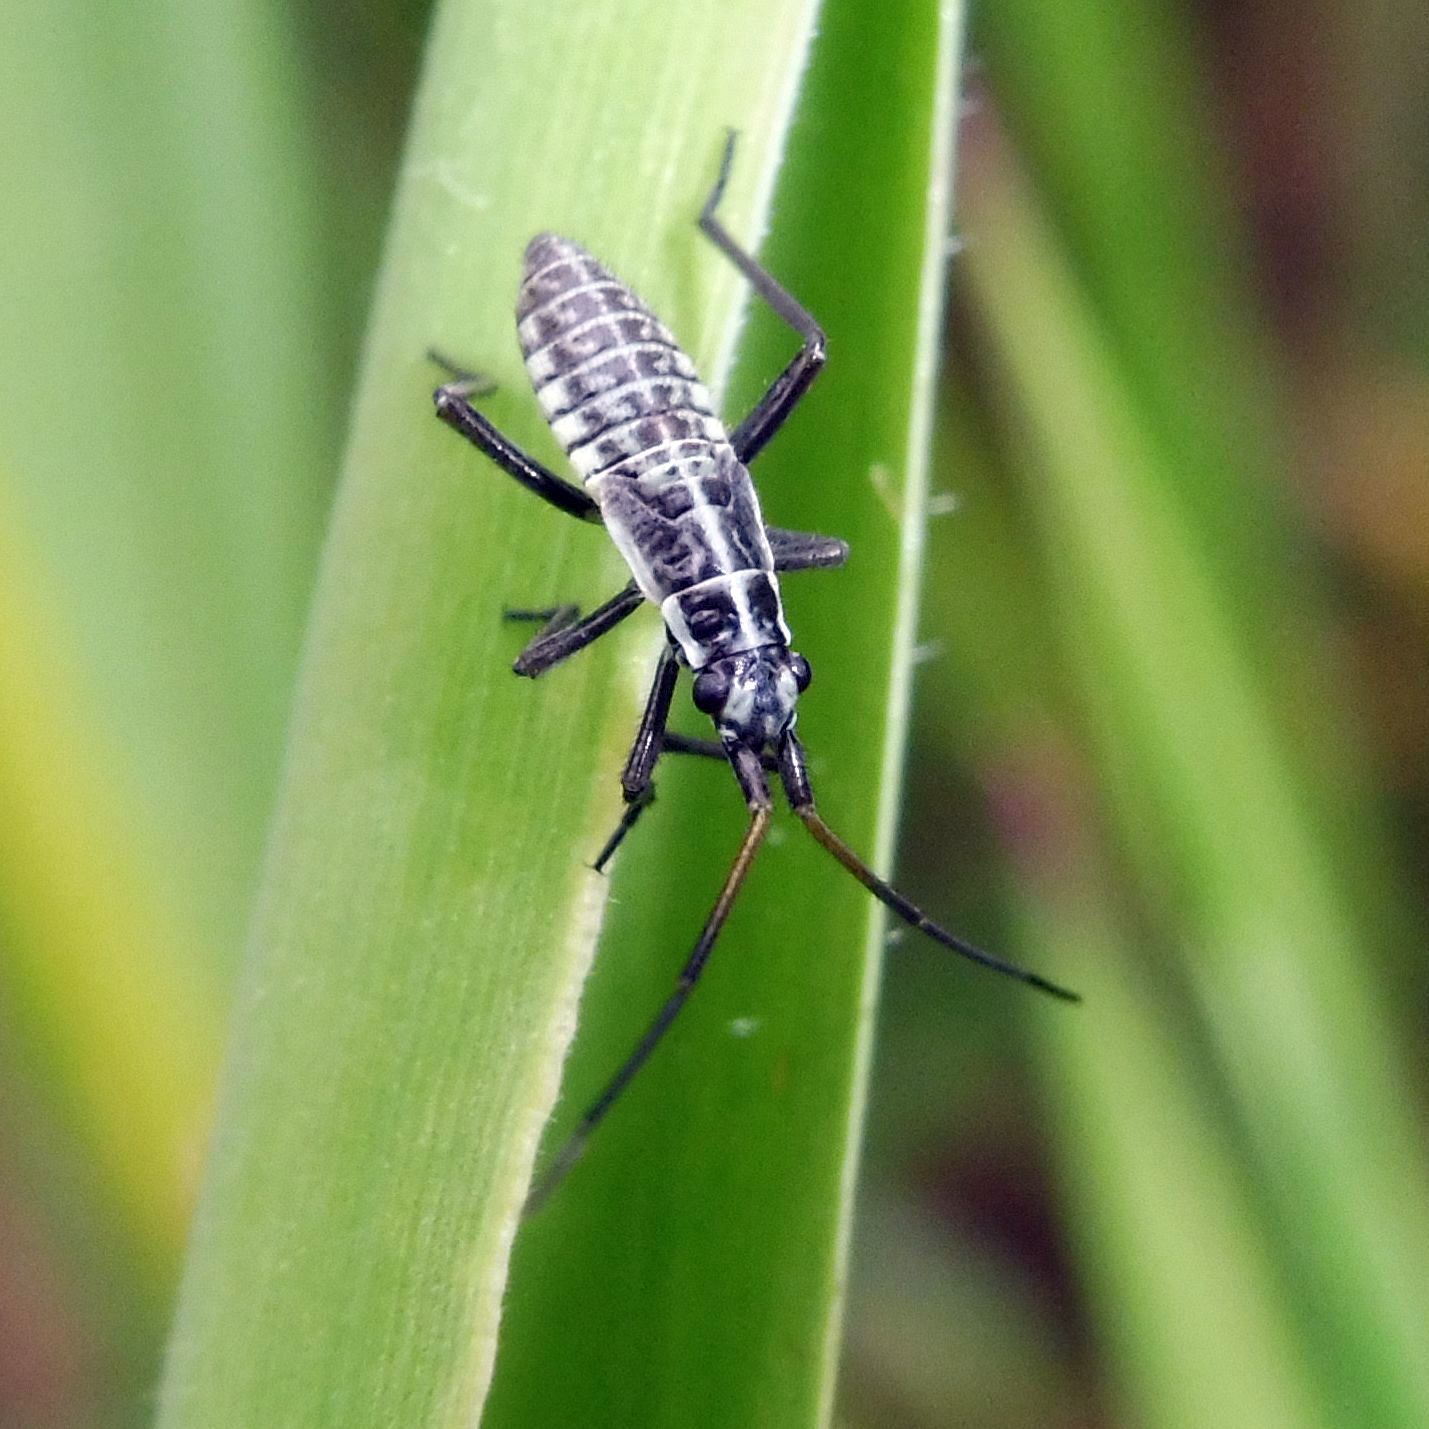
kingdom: Animalia
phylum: Arthropoda
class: Insecta
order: Hemiptera
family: Miridae
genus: Leptopterna
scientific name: Leptopterna dolabrata
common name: Meadow plant bug
